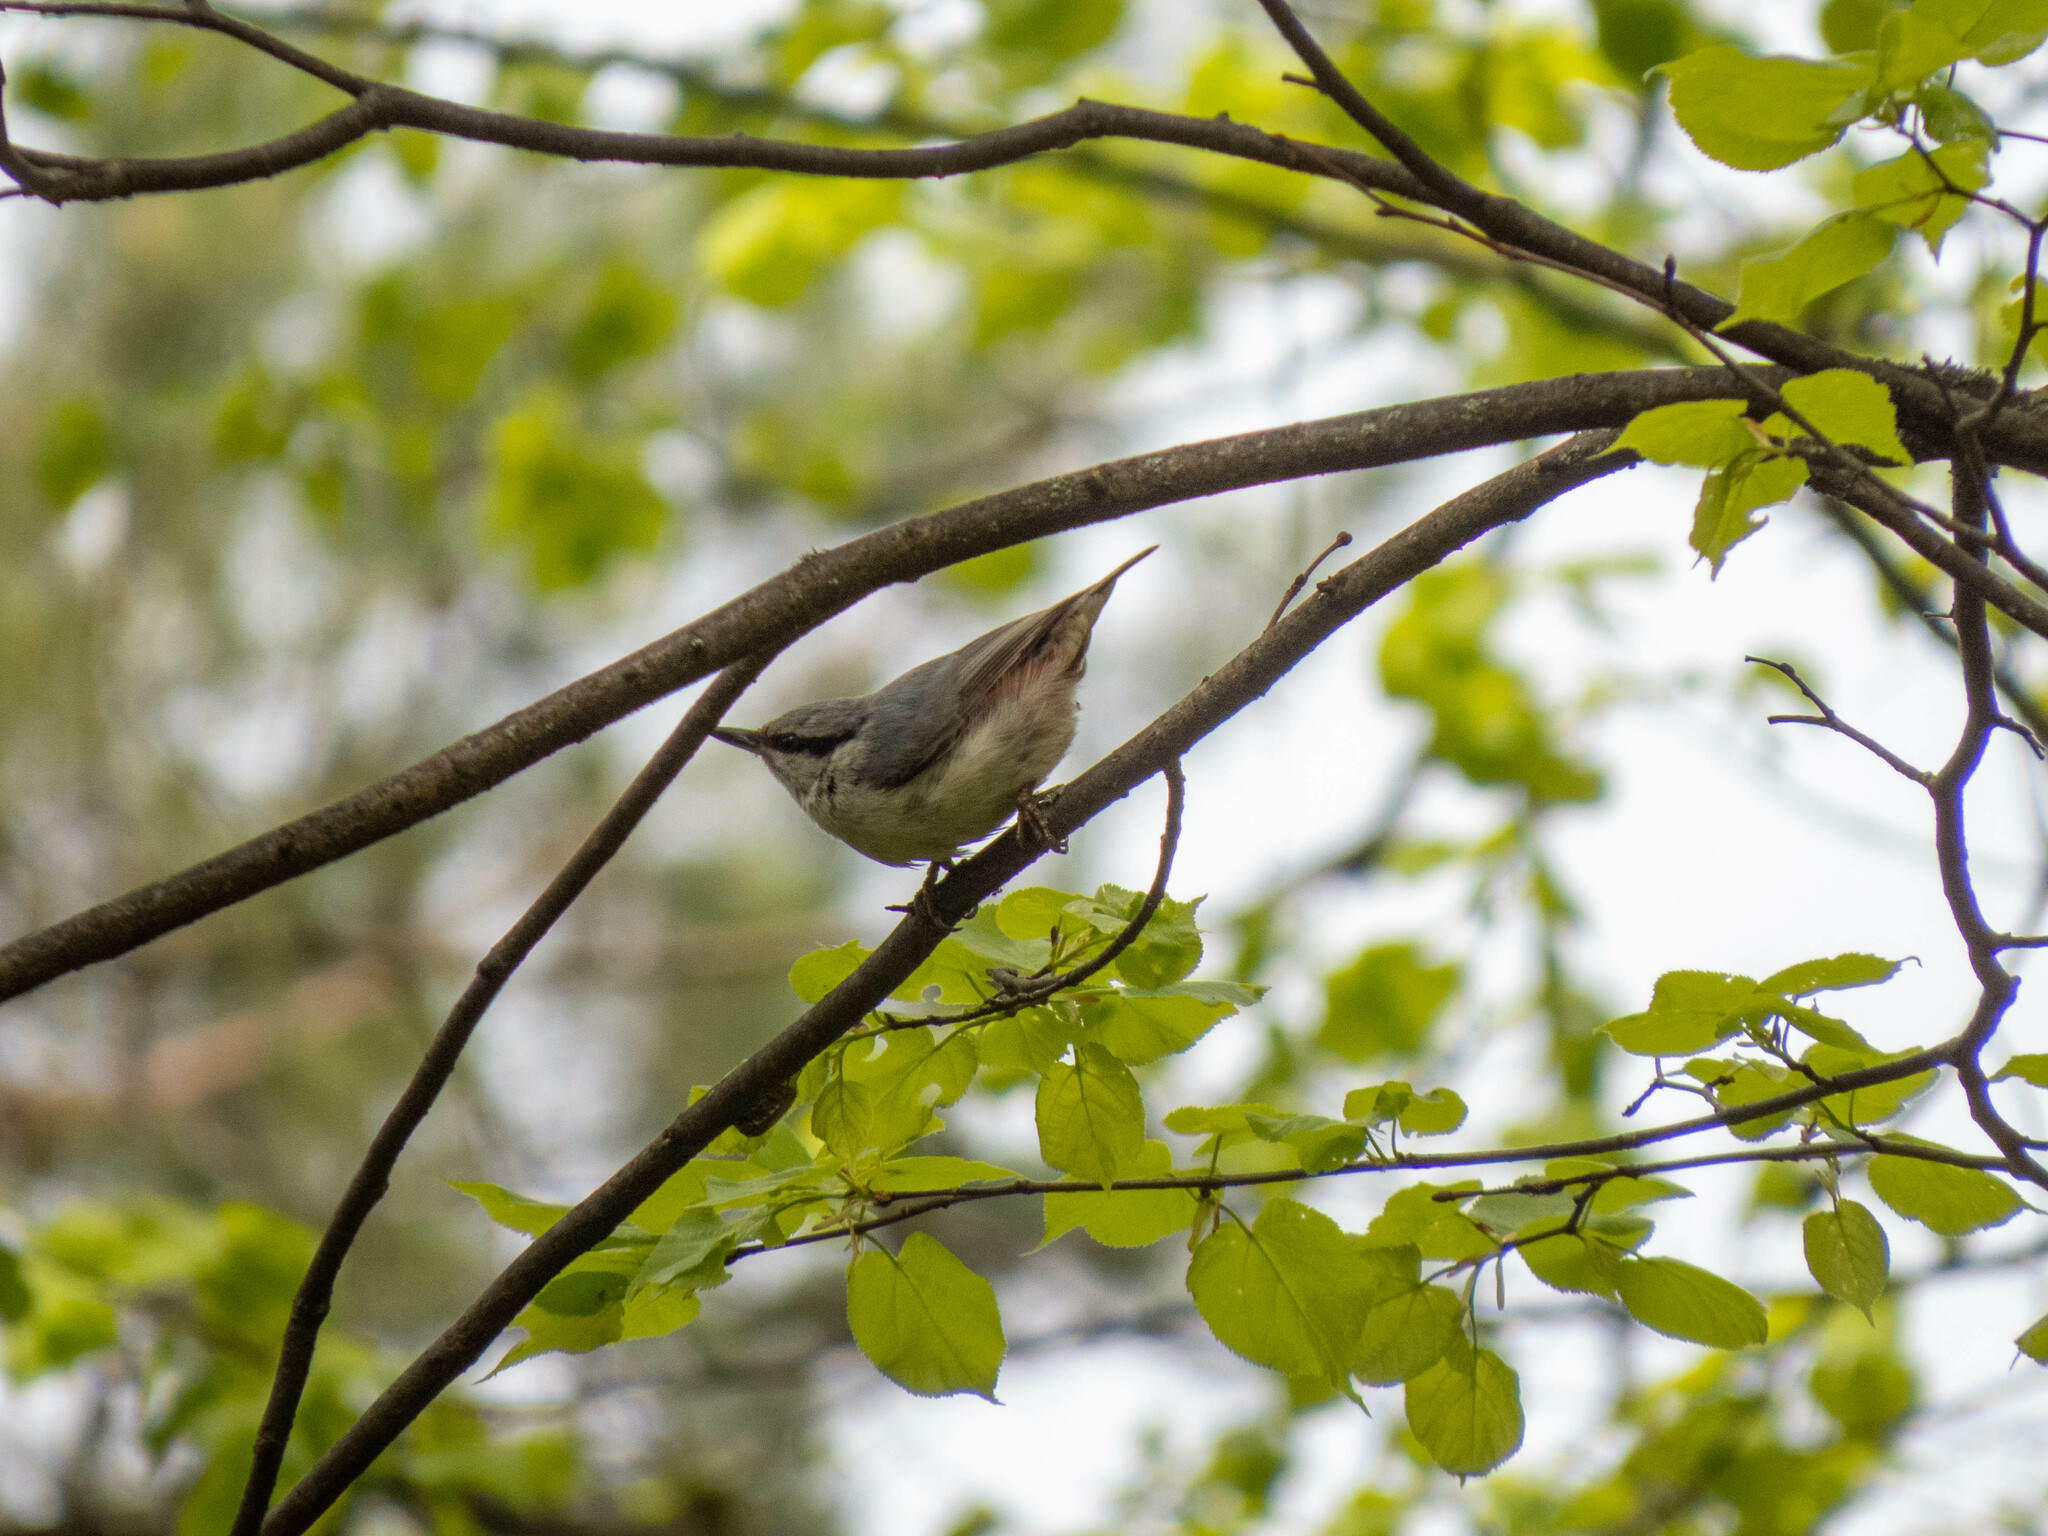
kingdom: Animalia
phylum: Chordata
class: Aves
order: Passeriformes
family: Sittidae
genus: Sitta
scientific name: Sitta europaea
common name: Eurasian nuthatch
